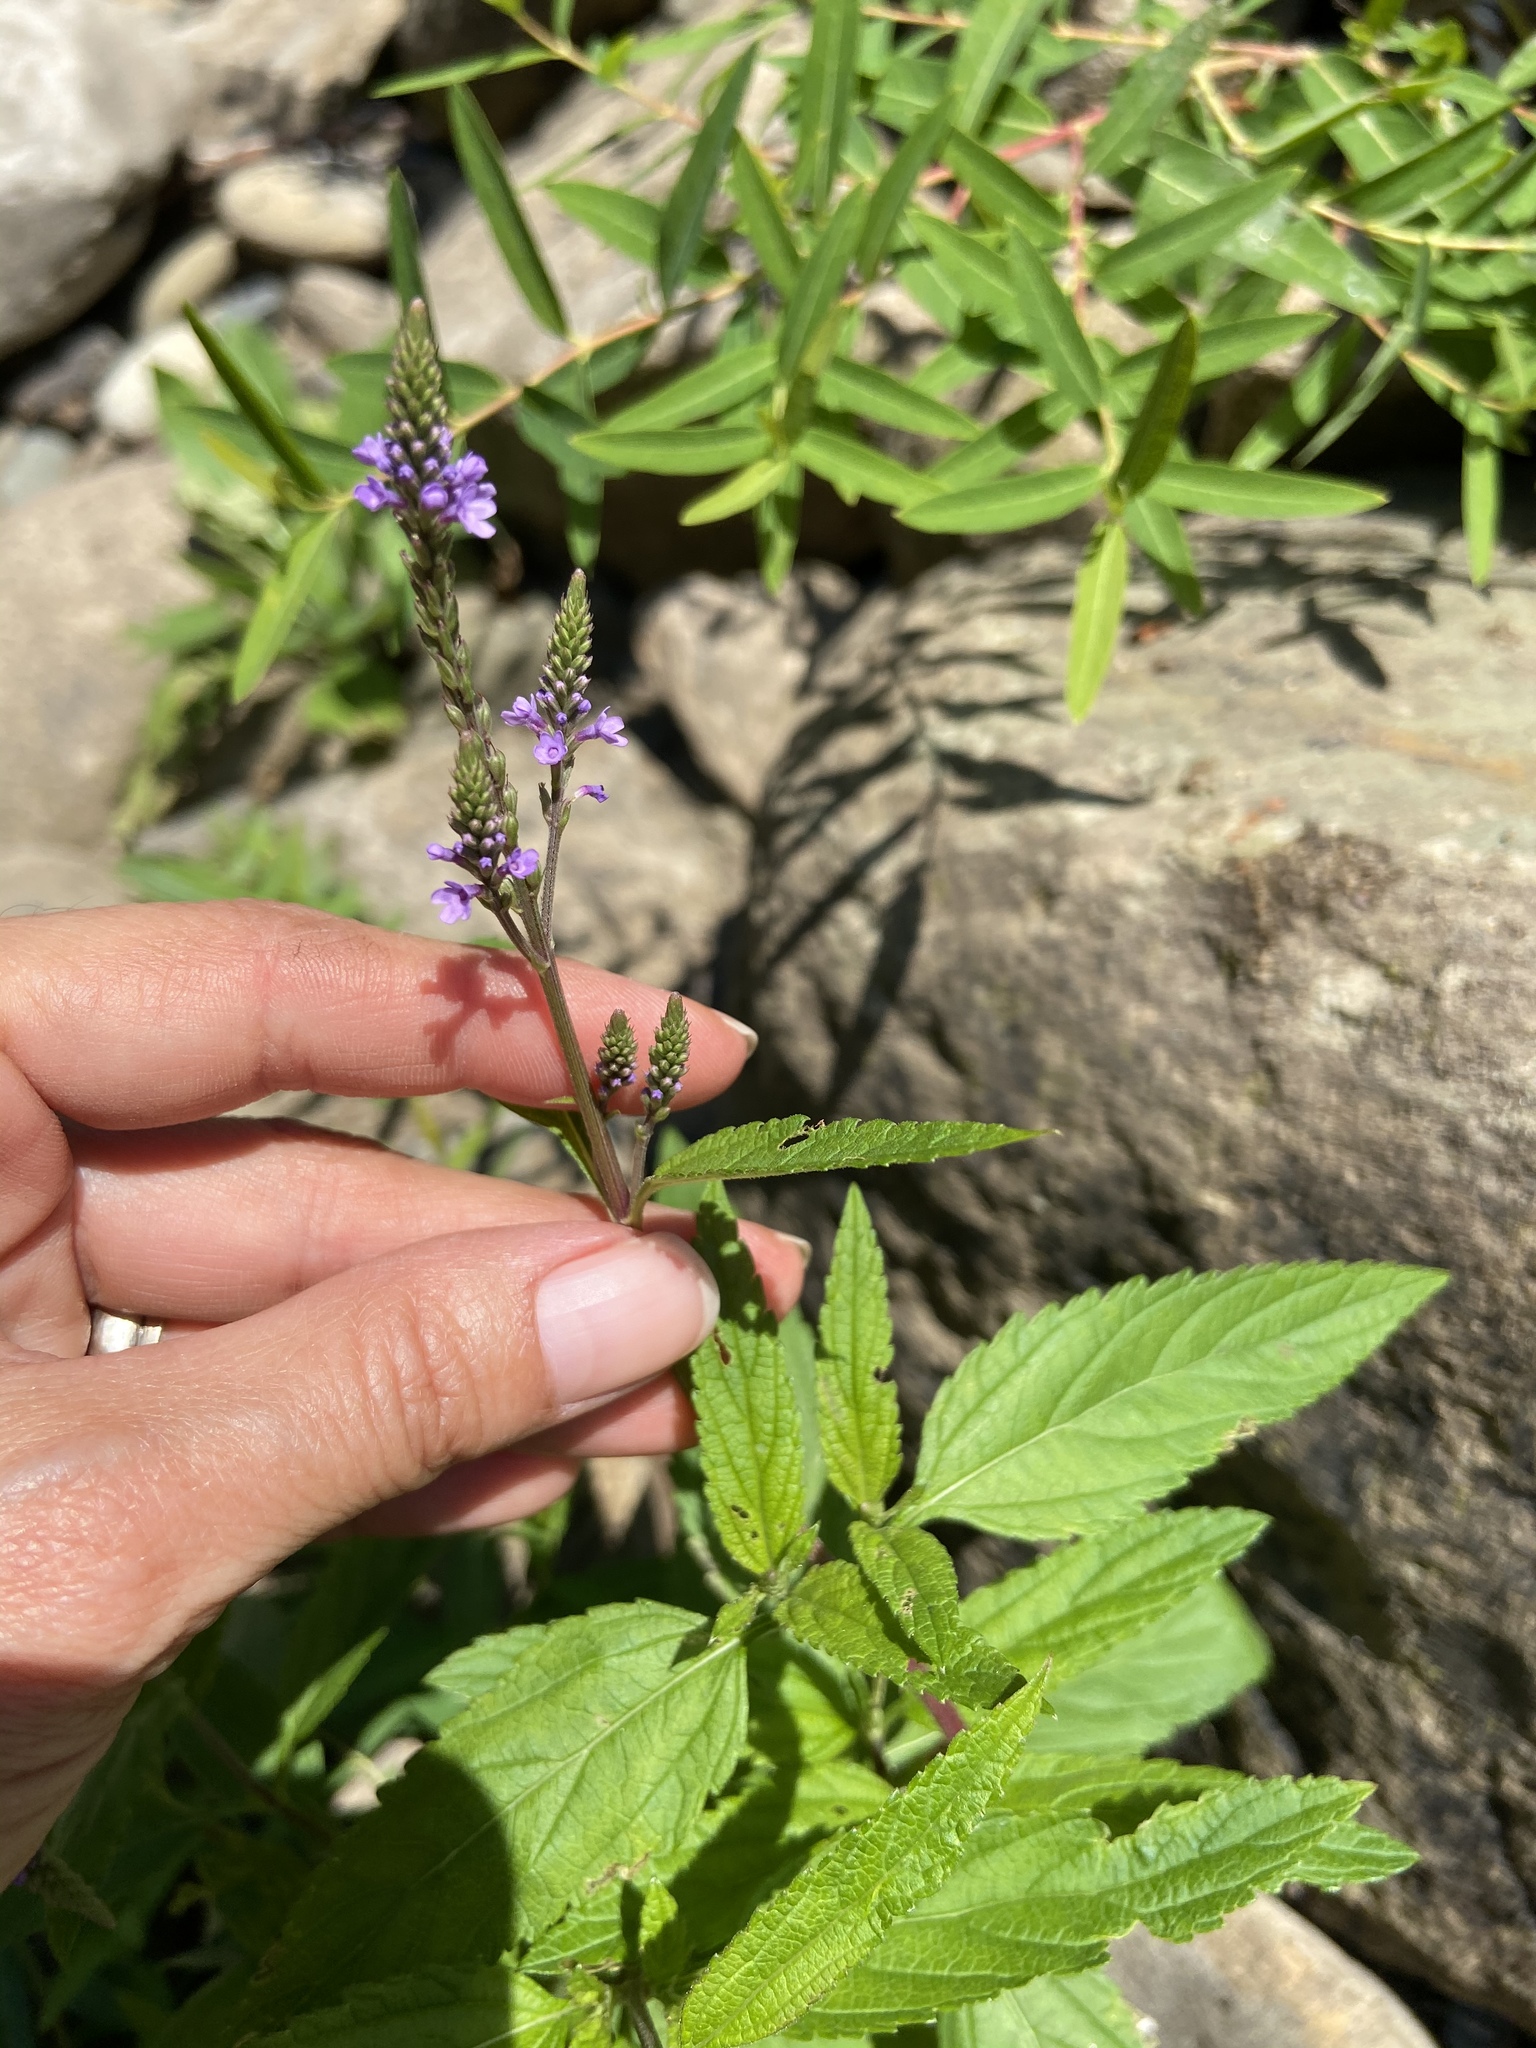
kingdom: Plantae
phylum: Tracheophyta
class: Magnoliopsida
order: Lamiales
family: Verbenaceae
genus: Verbena
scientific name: Verbena hastata
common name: American blue vervain
